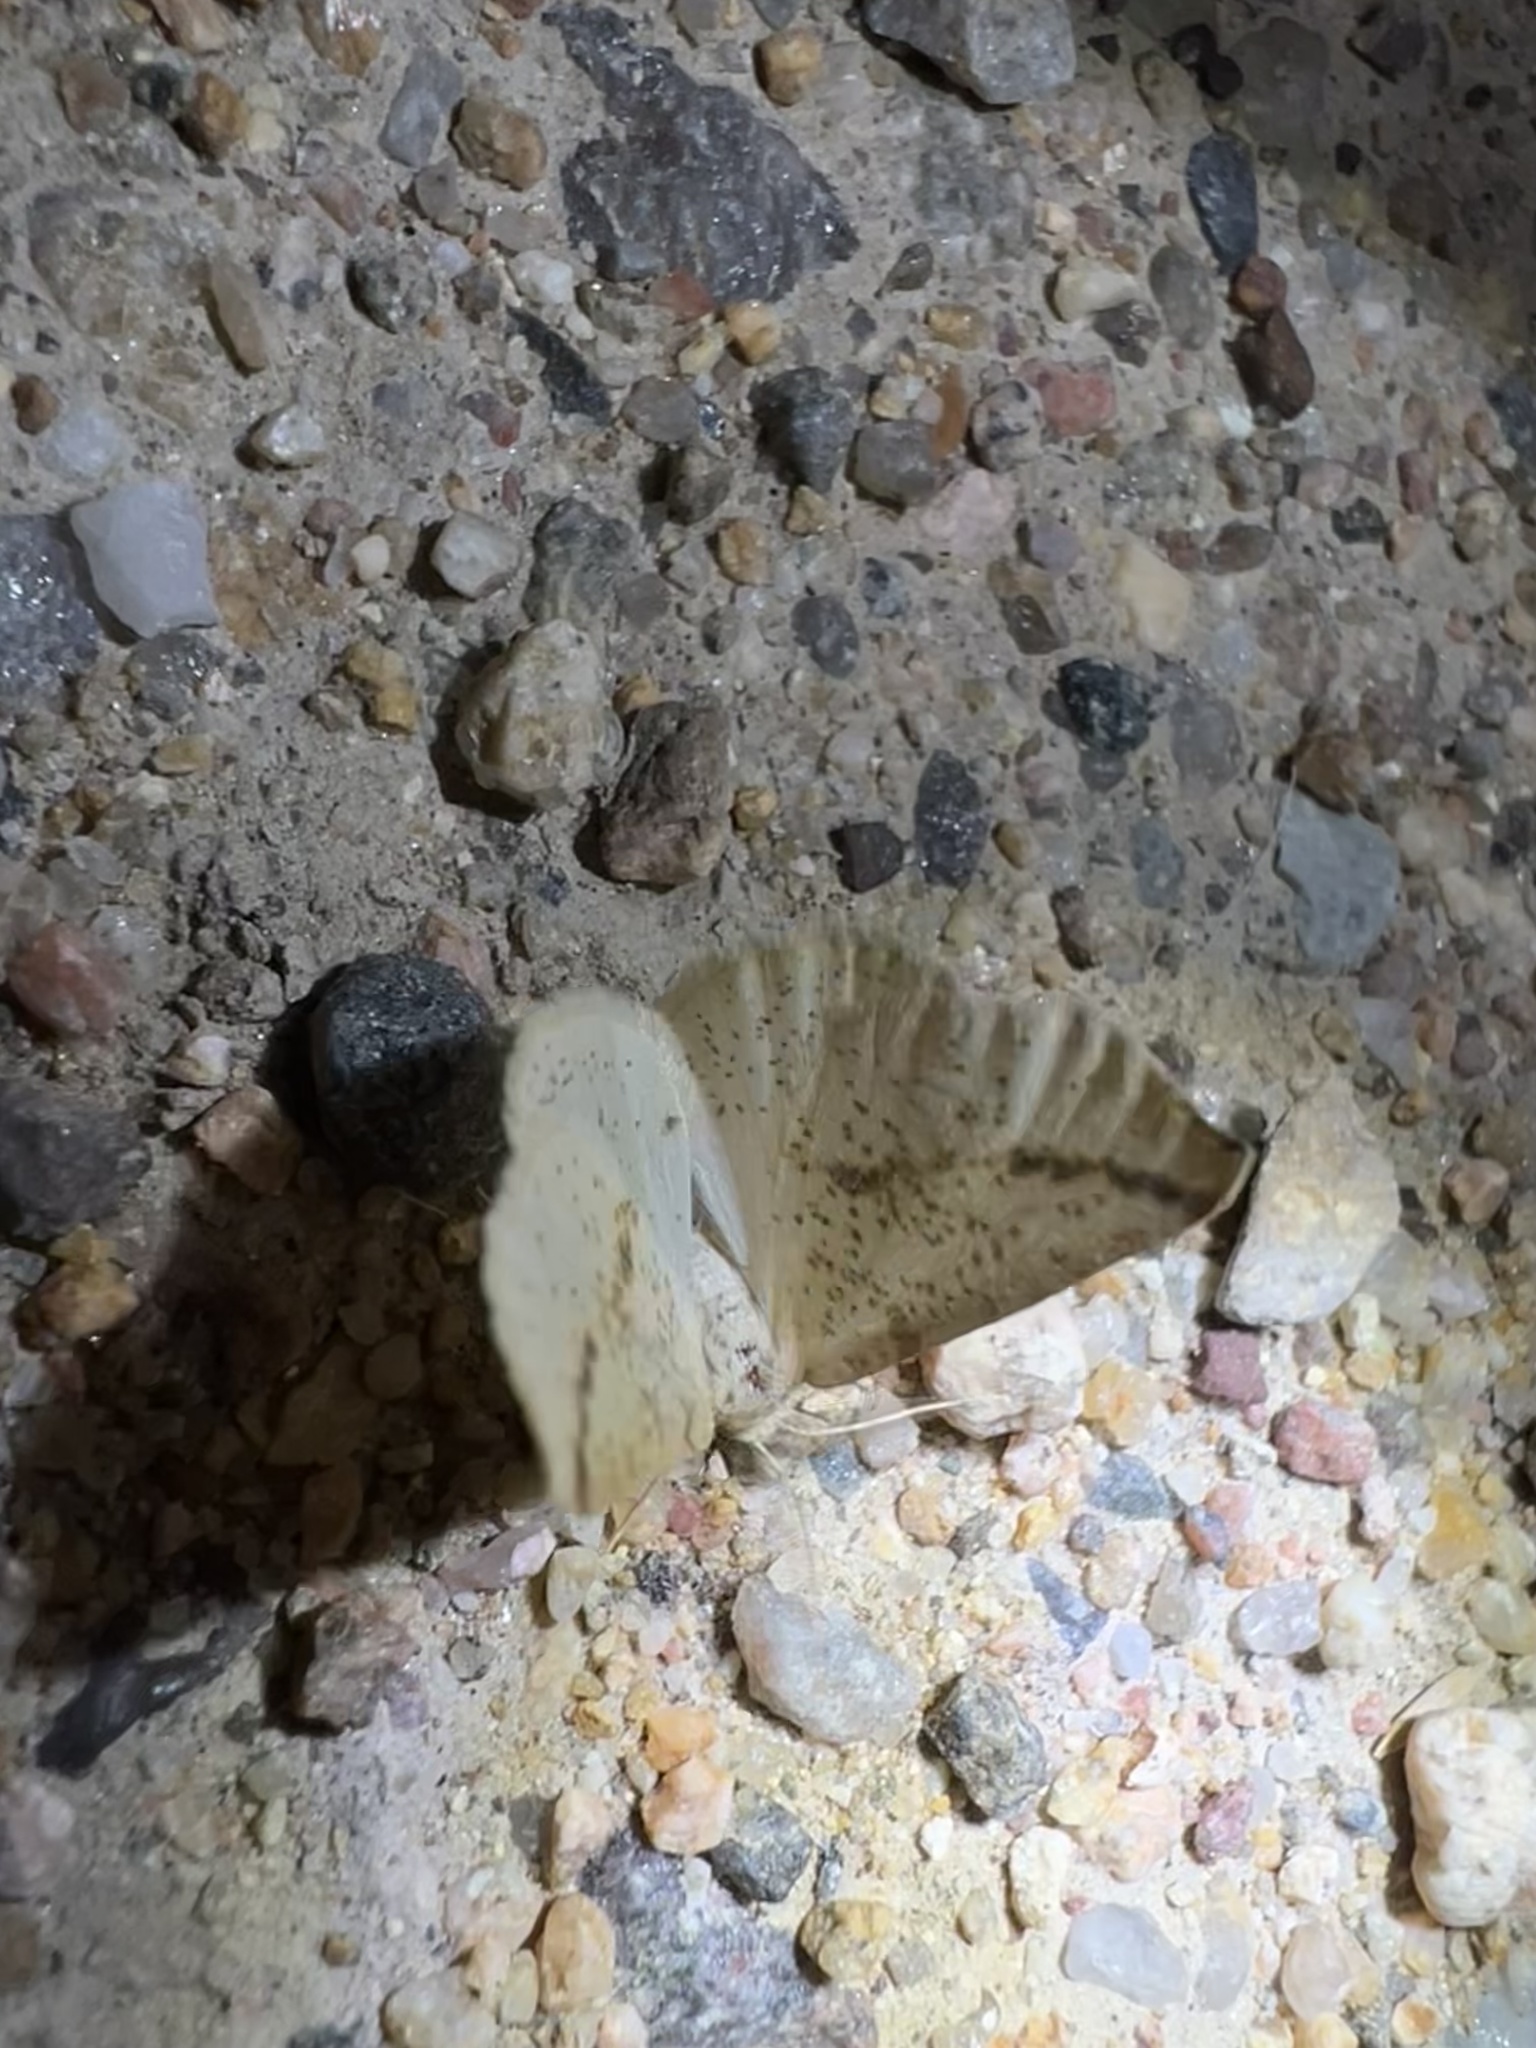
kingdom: Animalia
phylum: Arthropoda
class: Insecta
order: Lepidoptera
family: Geometridae
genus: Neoterpes
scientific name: Neoterpes edwardsata
